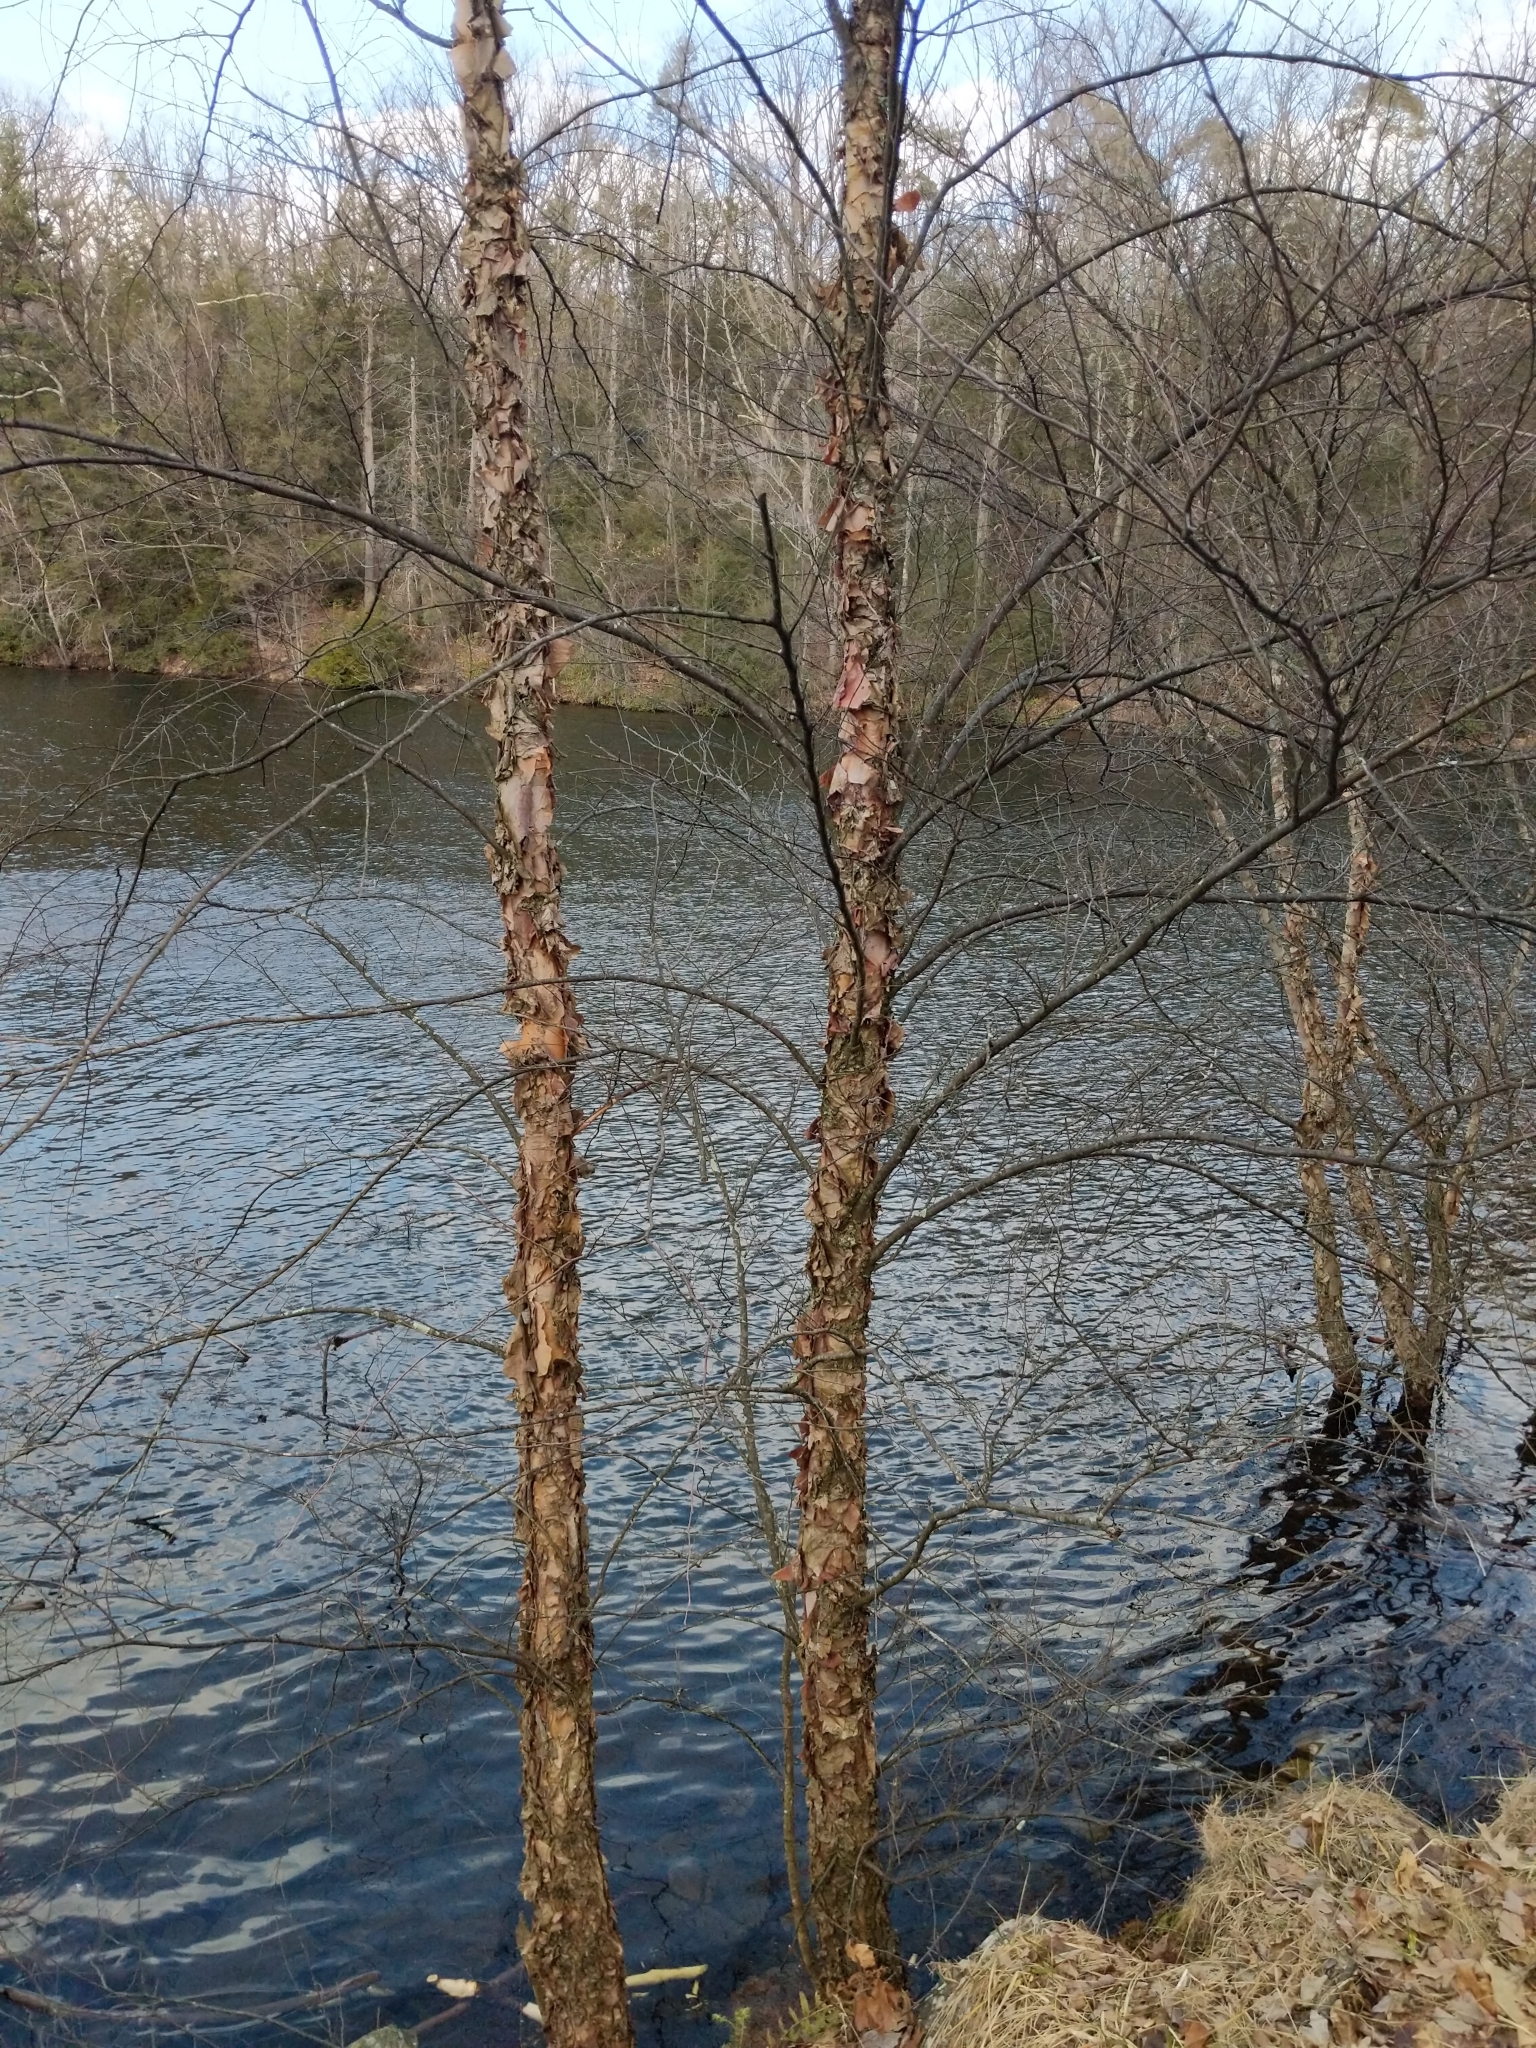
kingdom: Plantae
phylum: Tracheophyta
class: Magnoliopsida
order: Fagales
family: Betulaceae
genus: Betula
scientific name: Betula nigra
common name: Black birch
